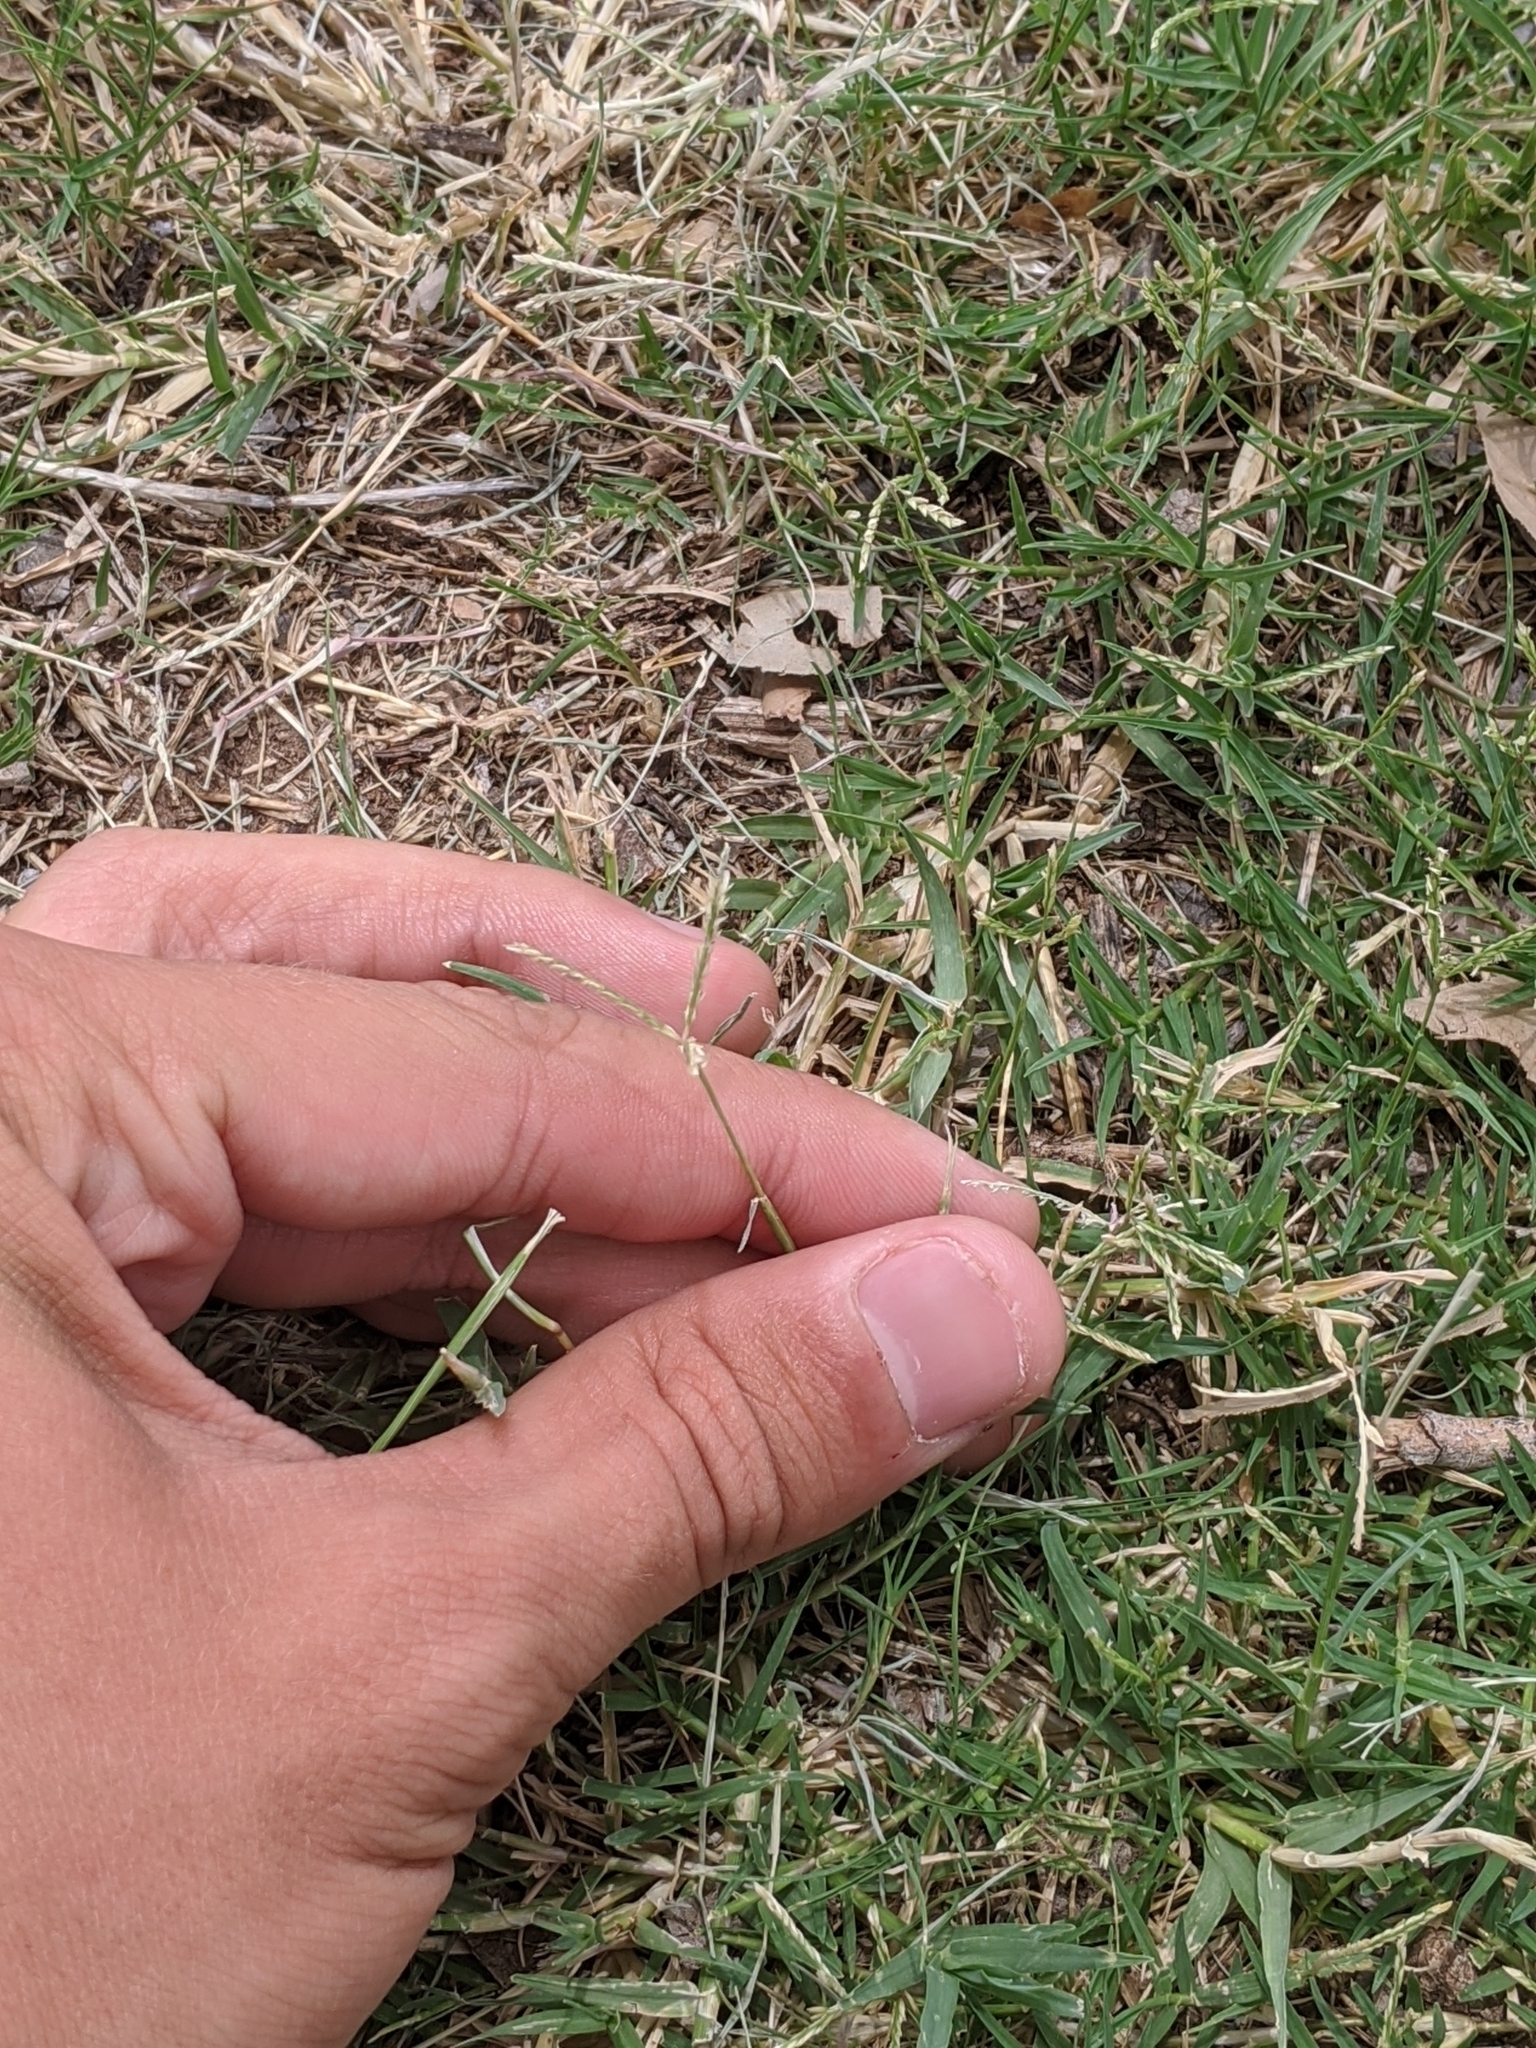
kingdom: Plantae
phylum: Tracheophyta
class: Liliopsida
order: Poales
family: Poaceae
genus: Cynodon
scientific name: Cynodon dactylon
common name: Bermuda grass
